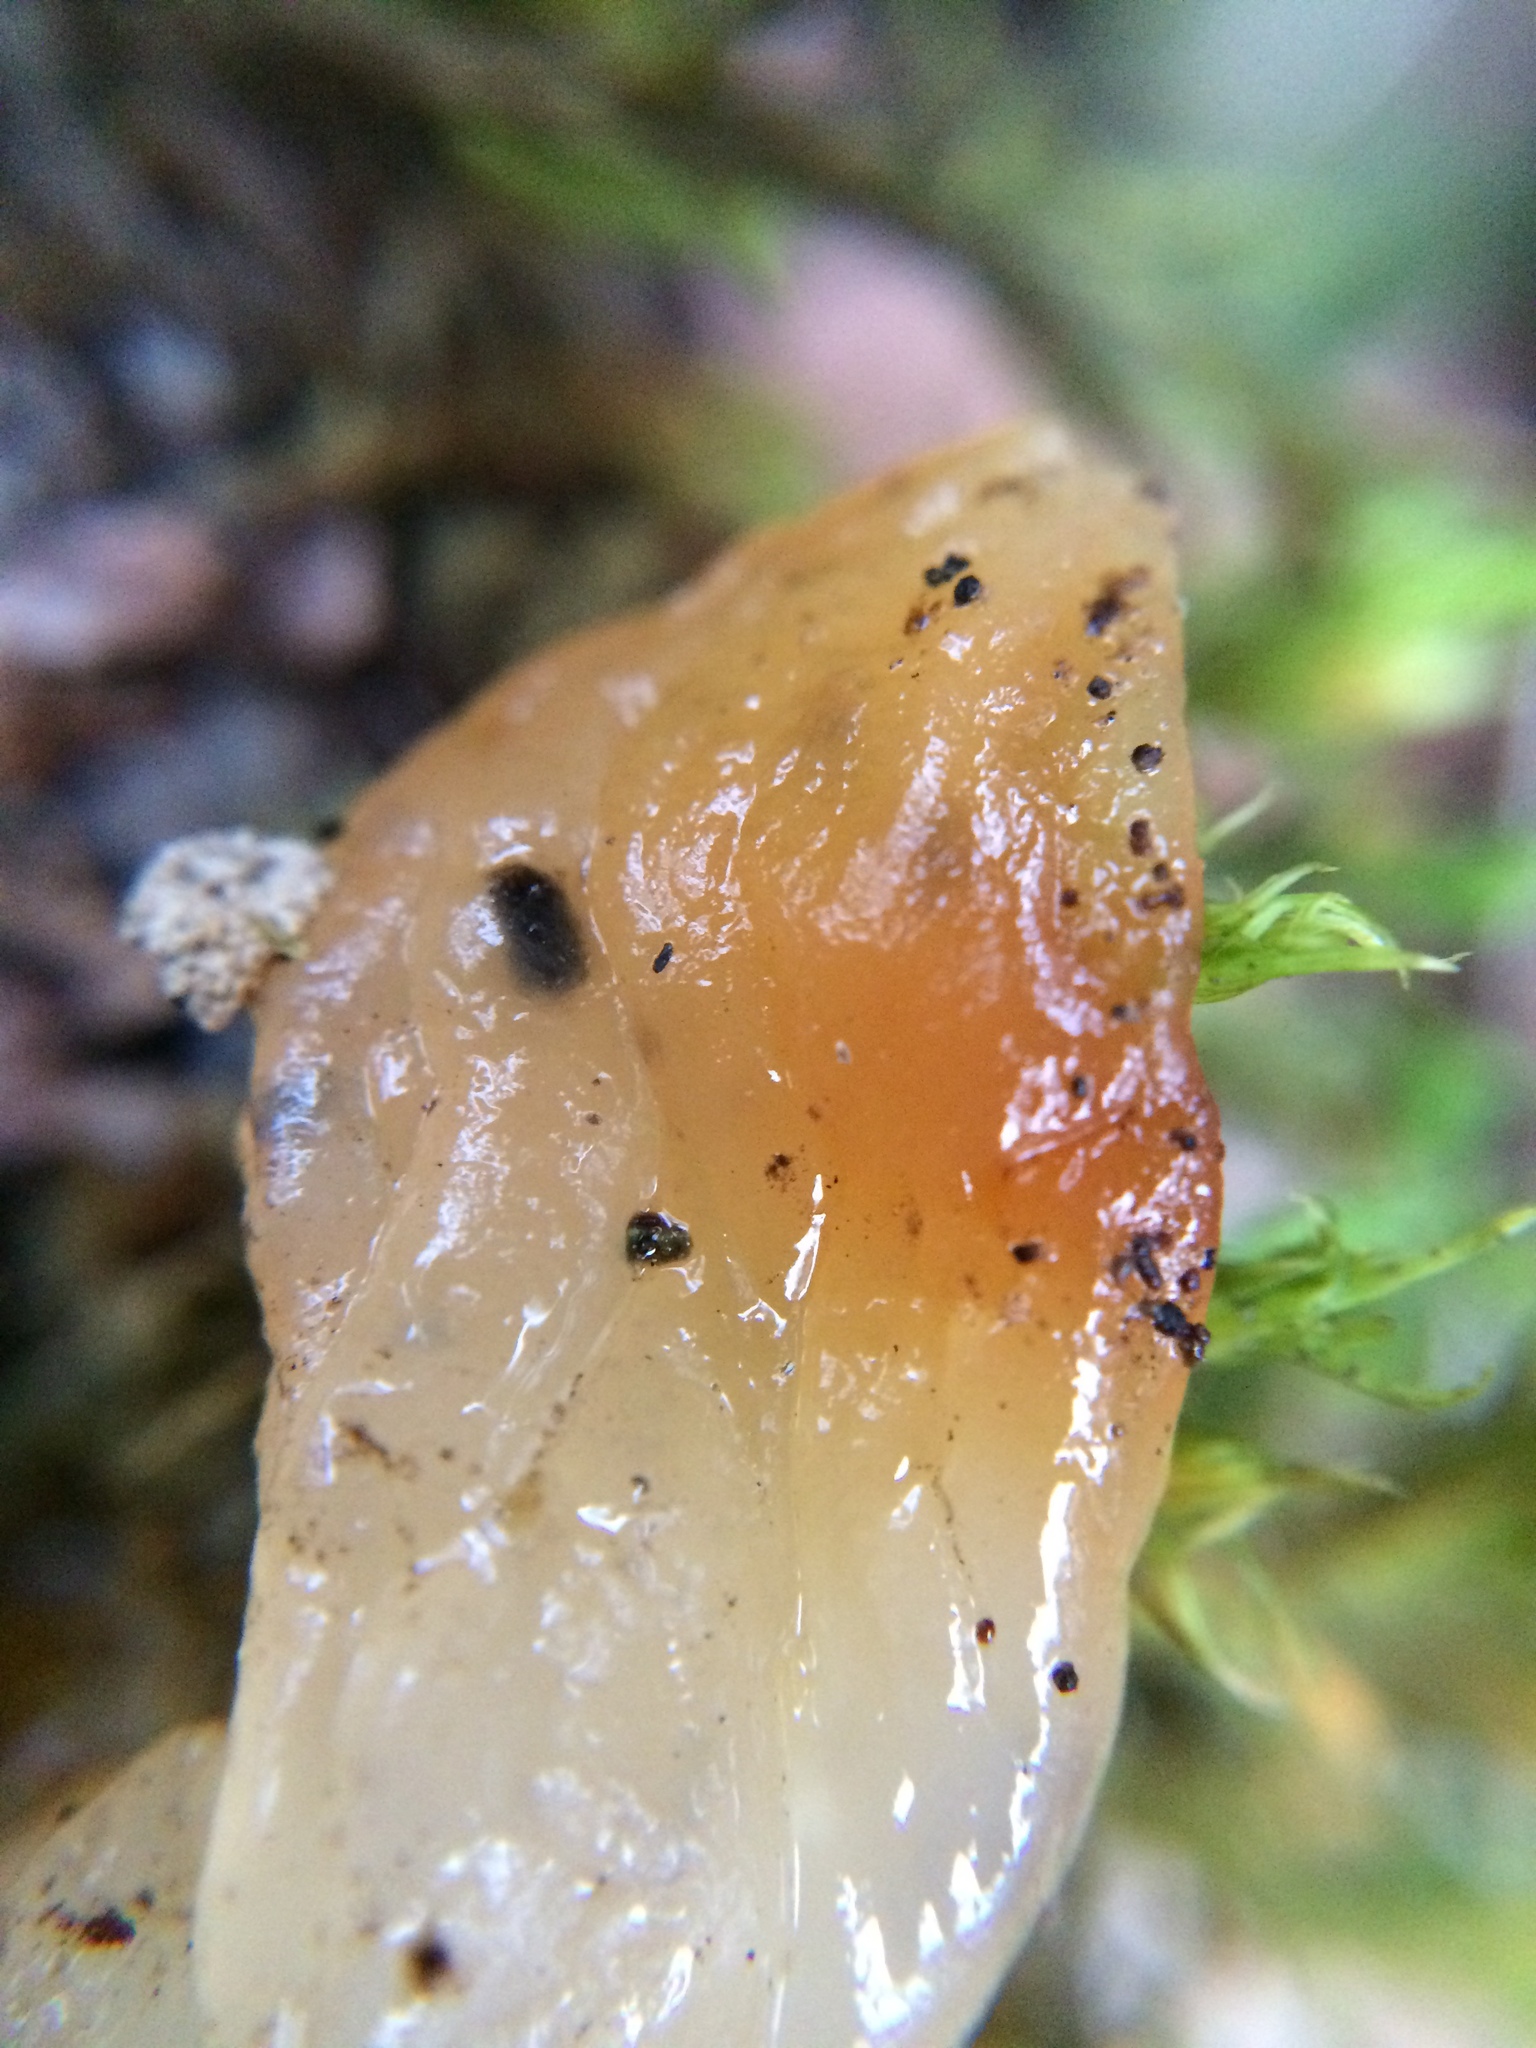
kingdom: Fungi
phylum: Basidiomycota
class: Tremellomycetes
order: Tremellales
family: Tremellaceae
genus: Tremella
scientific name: Tremella mesenterica
